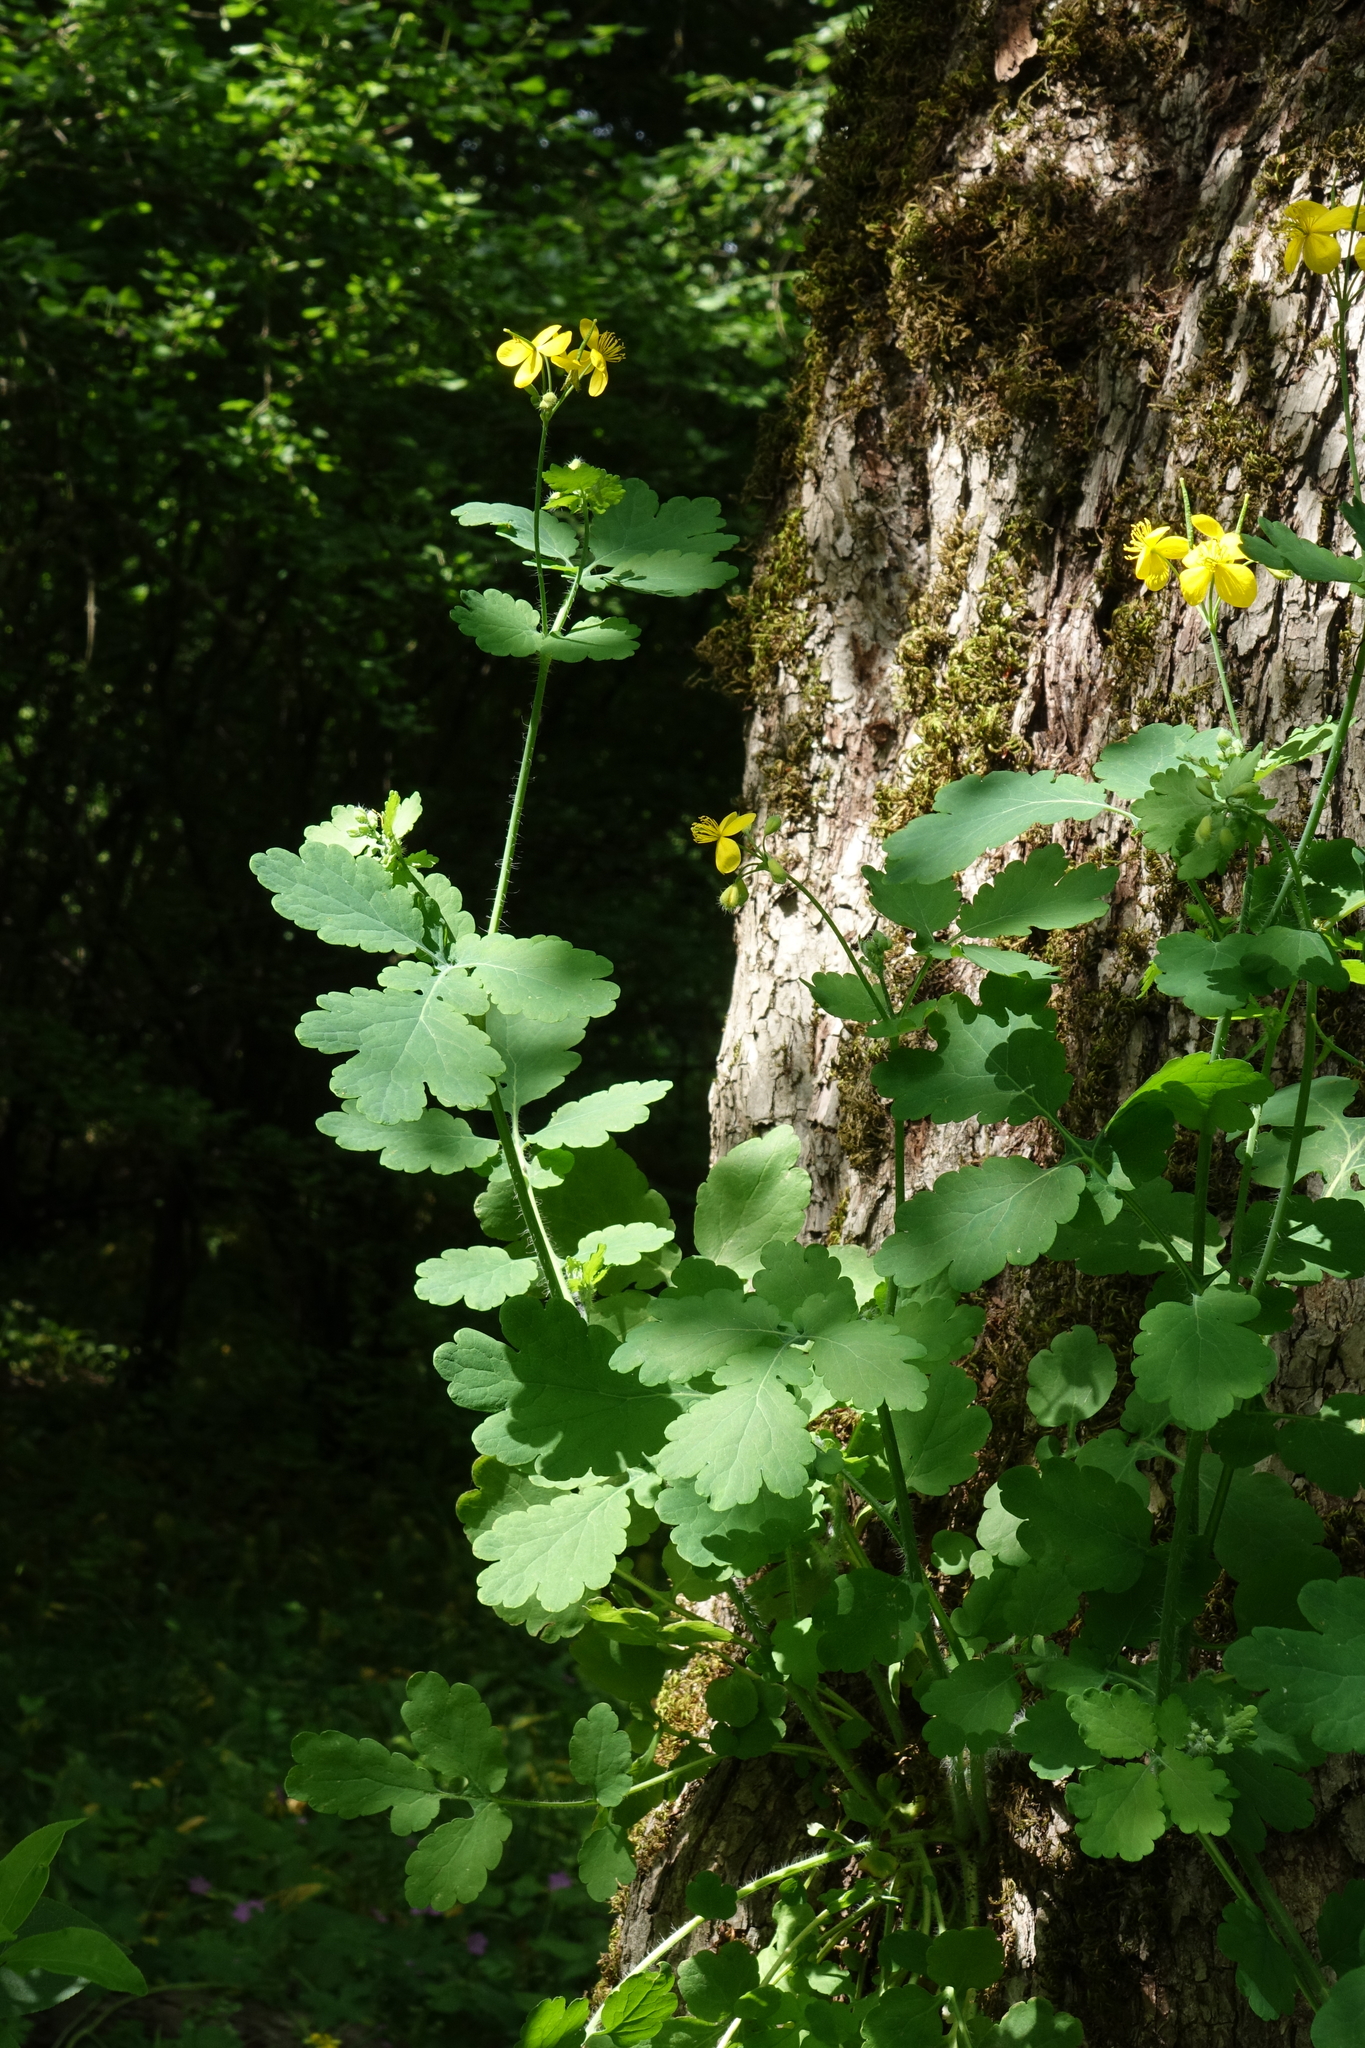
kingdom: Plantae
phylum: Tracheophyta
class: Magnoliopsida
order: Ranunculales
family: Papaveraceae
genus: Chelidonium
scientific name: Chelidonium majus
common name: Greater celandine
